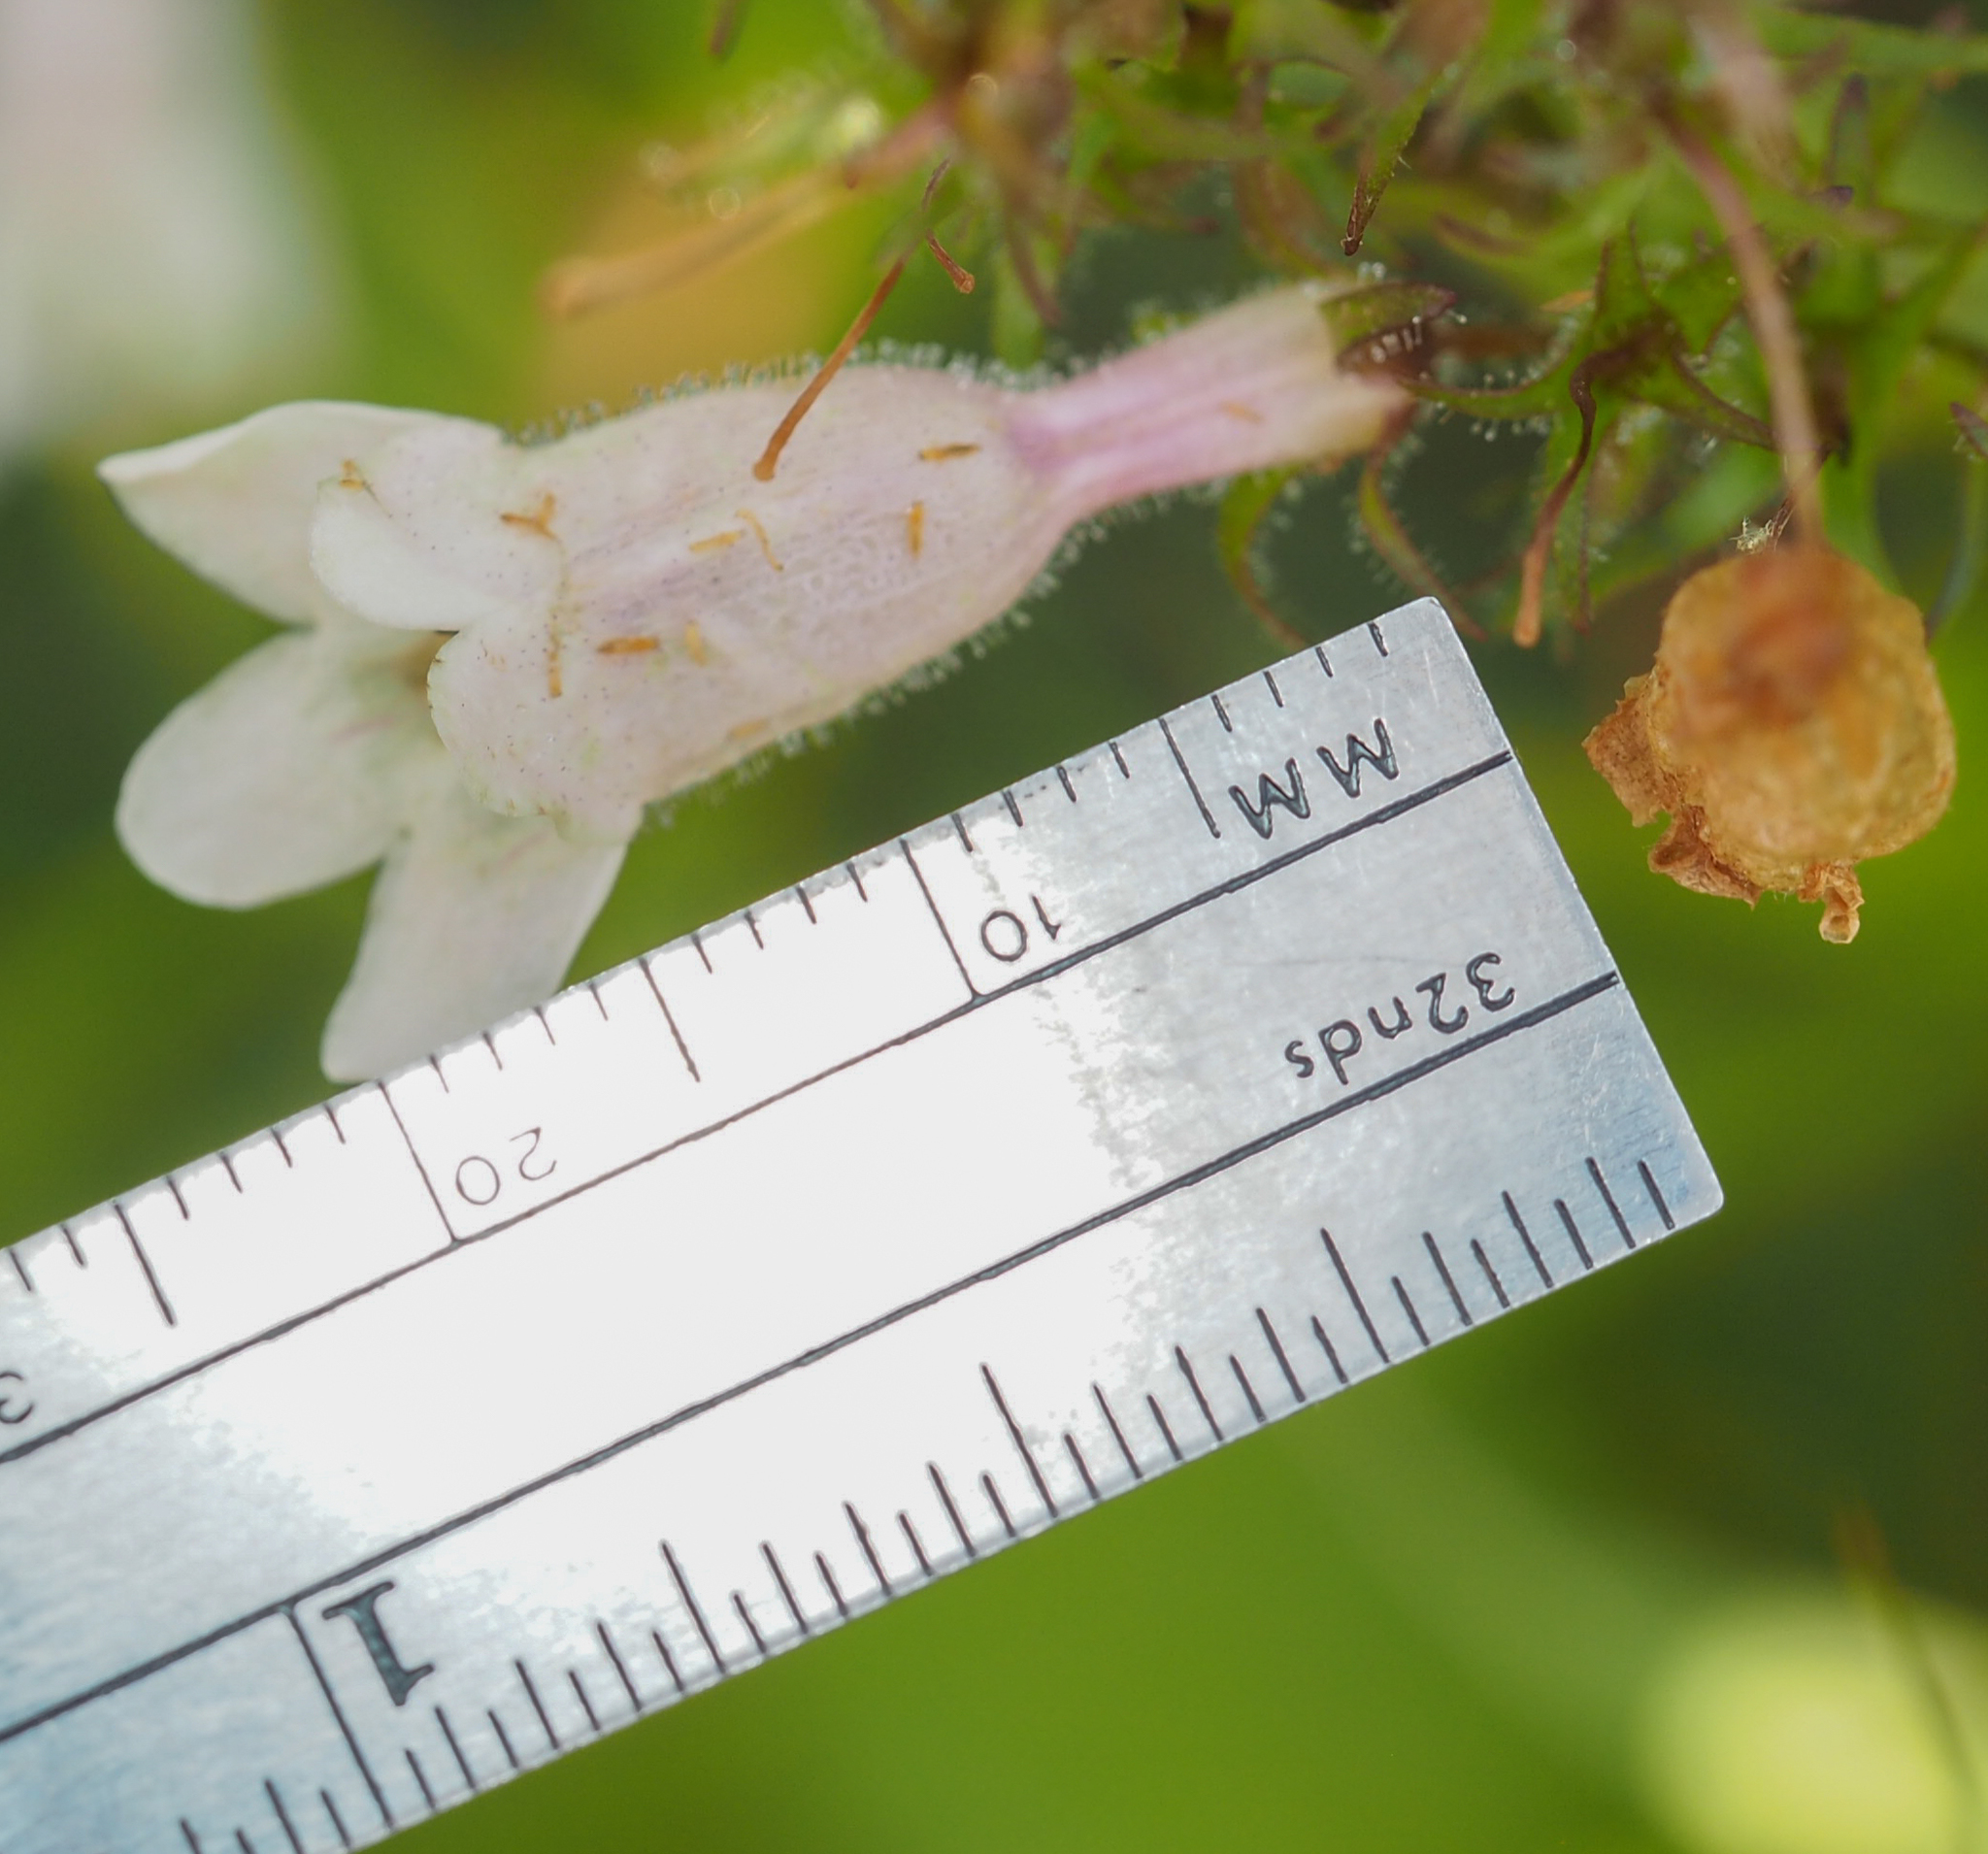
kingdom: Plantae
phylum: Tracheophyta
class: Magnoliopsida
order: Lamiales
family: Plantaginaceae
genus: Penstemon
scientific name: Penstemon digitalis
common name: Foxglove beardtongue
